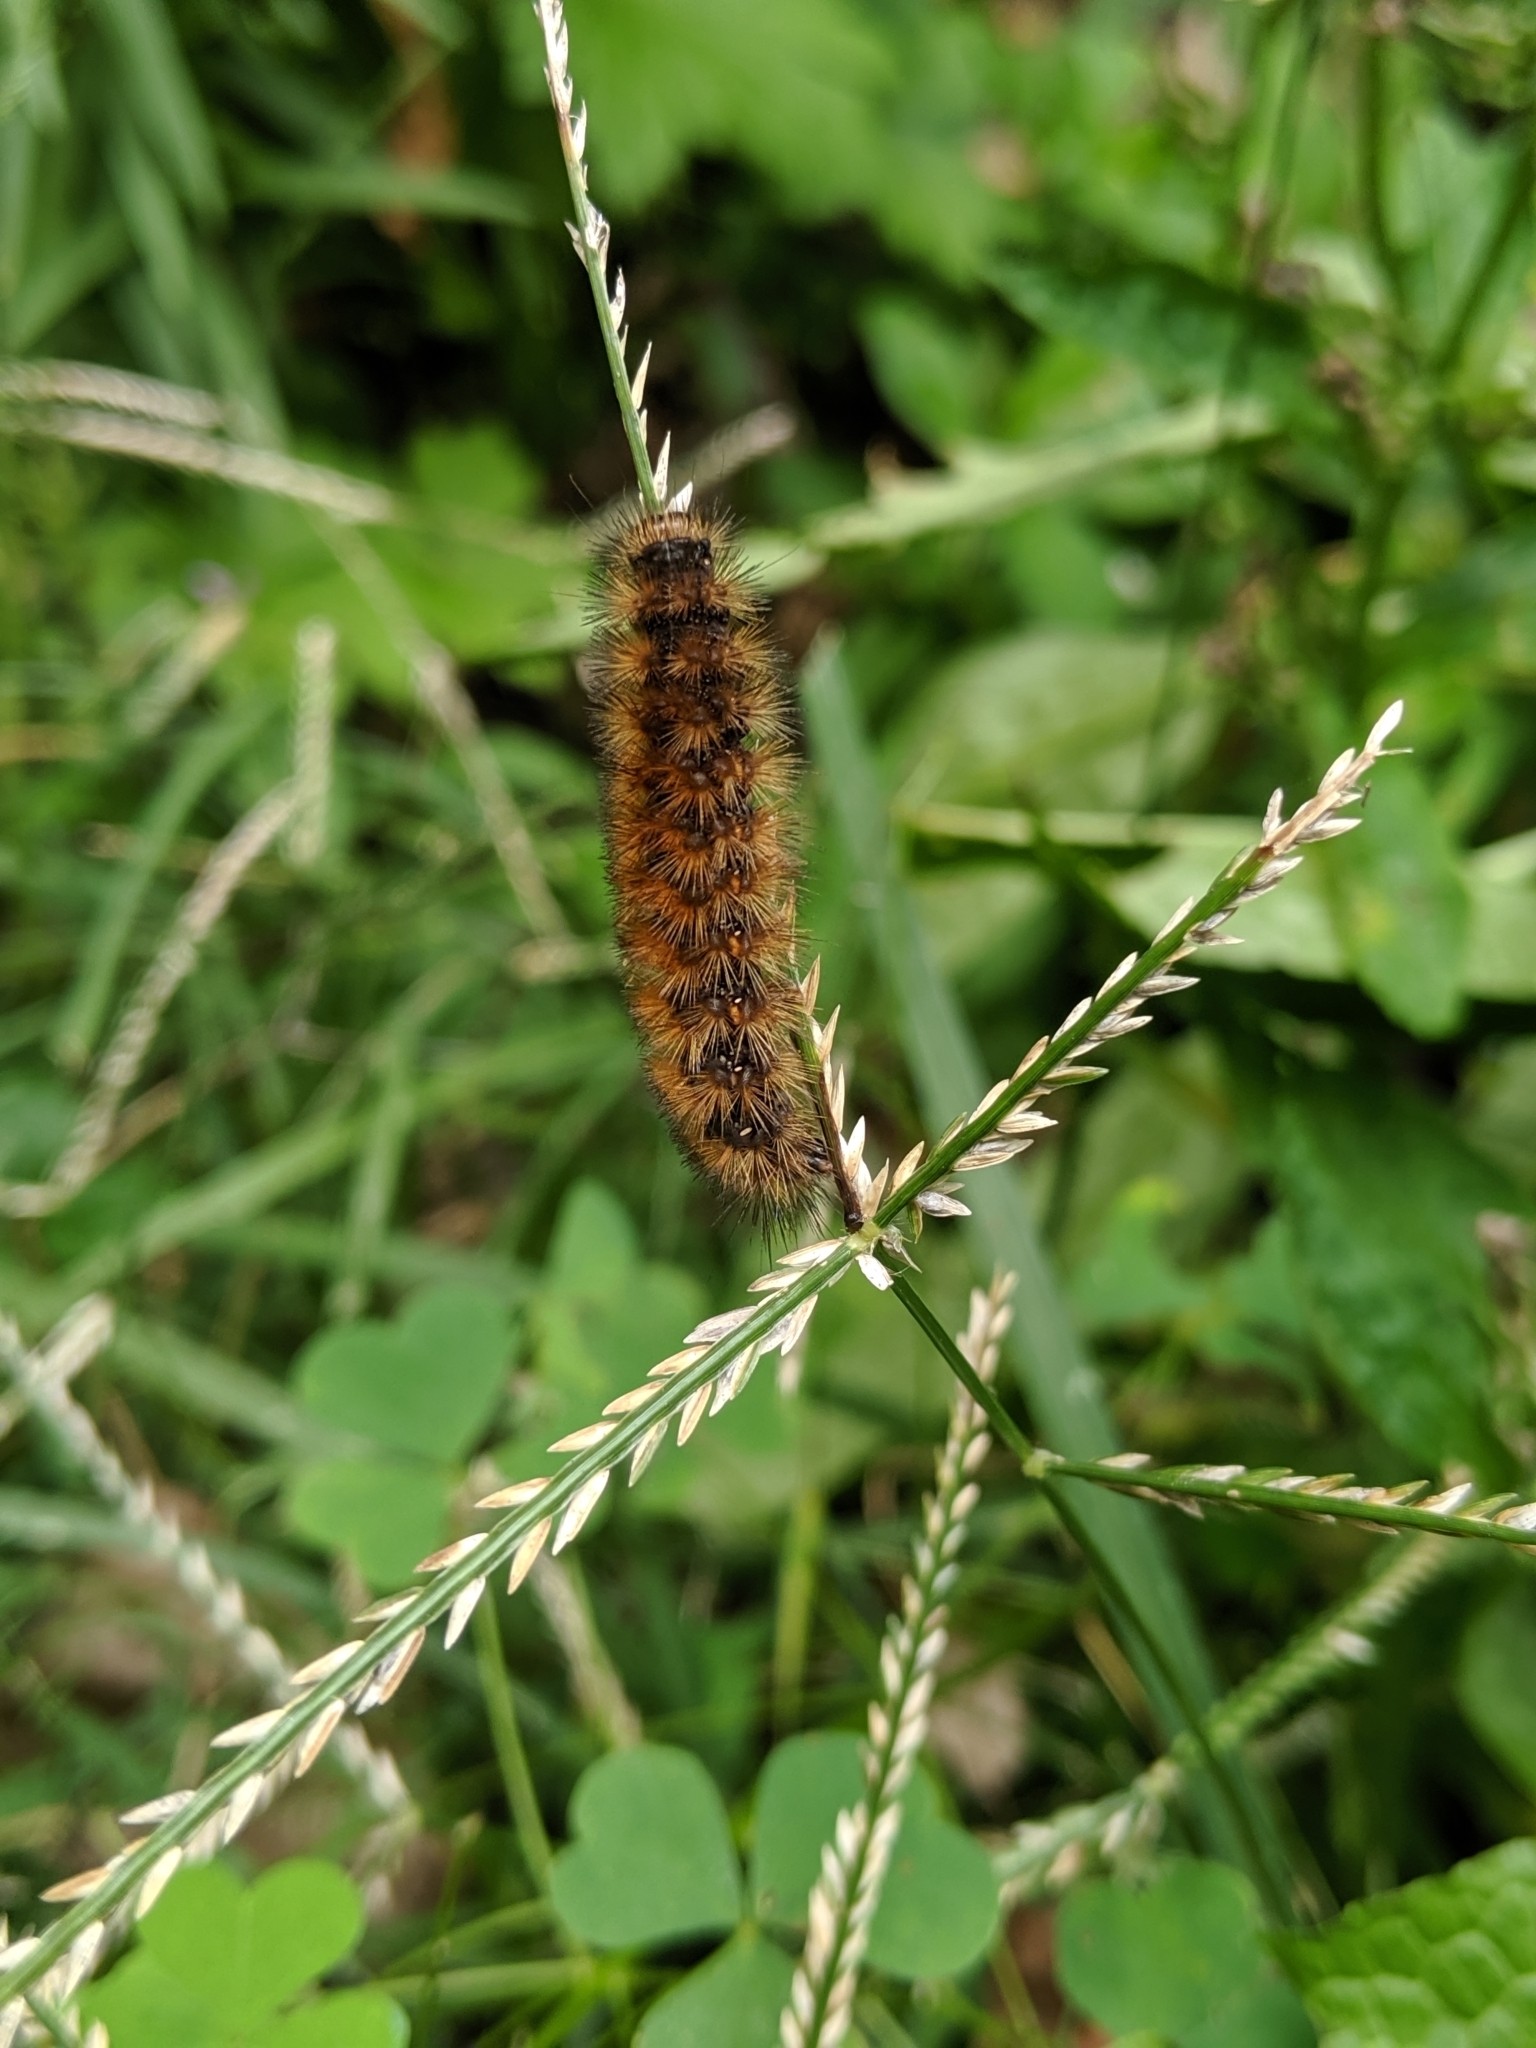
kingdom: Animalia
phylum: Arthropoda
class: Insecta
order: Lepidoptera
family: Erebidae
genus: Pyrrharctia
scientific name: Pyrrharctia isabella
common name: Isabella tiger moth
